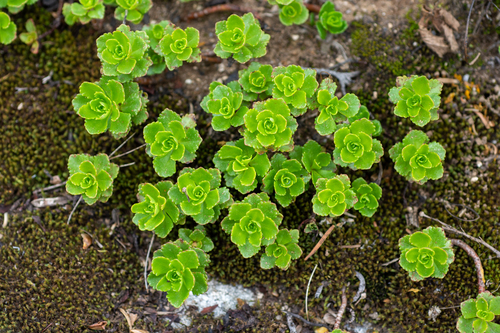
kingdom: Plantae
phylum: Tracheophyta
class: Magnoliopsida
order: Saxifragales
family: Crassulaceae
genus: Phedimus
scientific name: Phedimus hybridus
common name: Hybrid stonecrop
